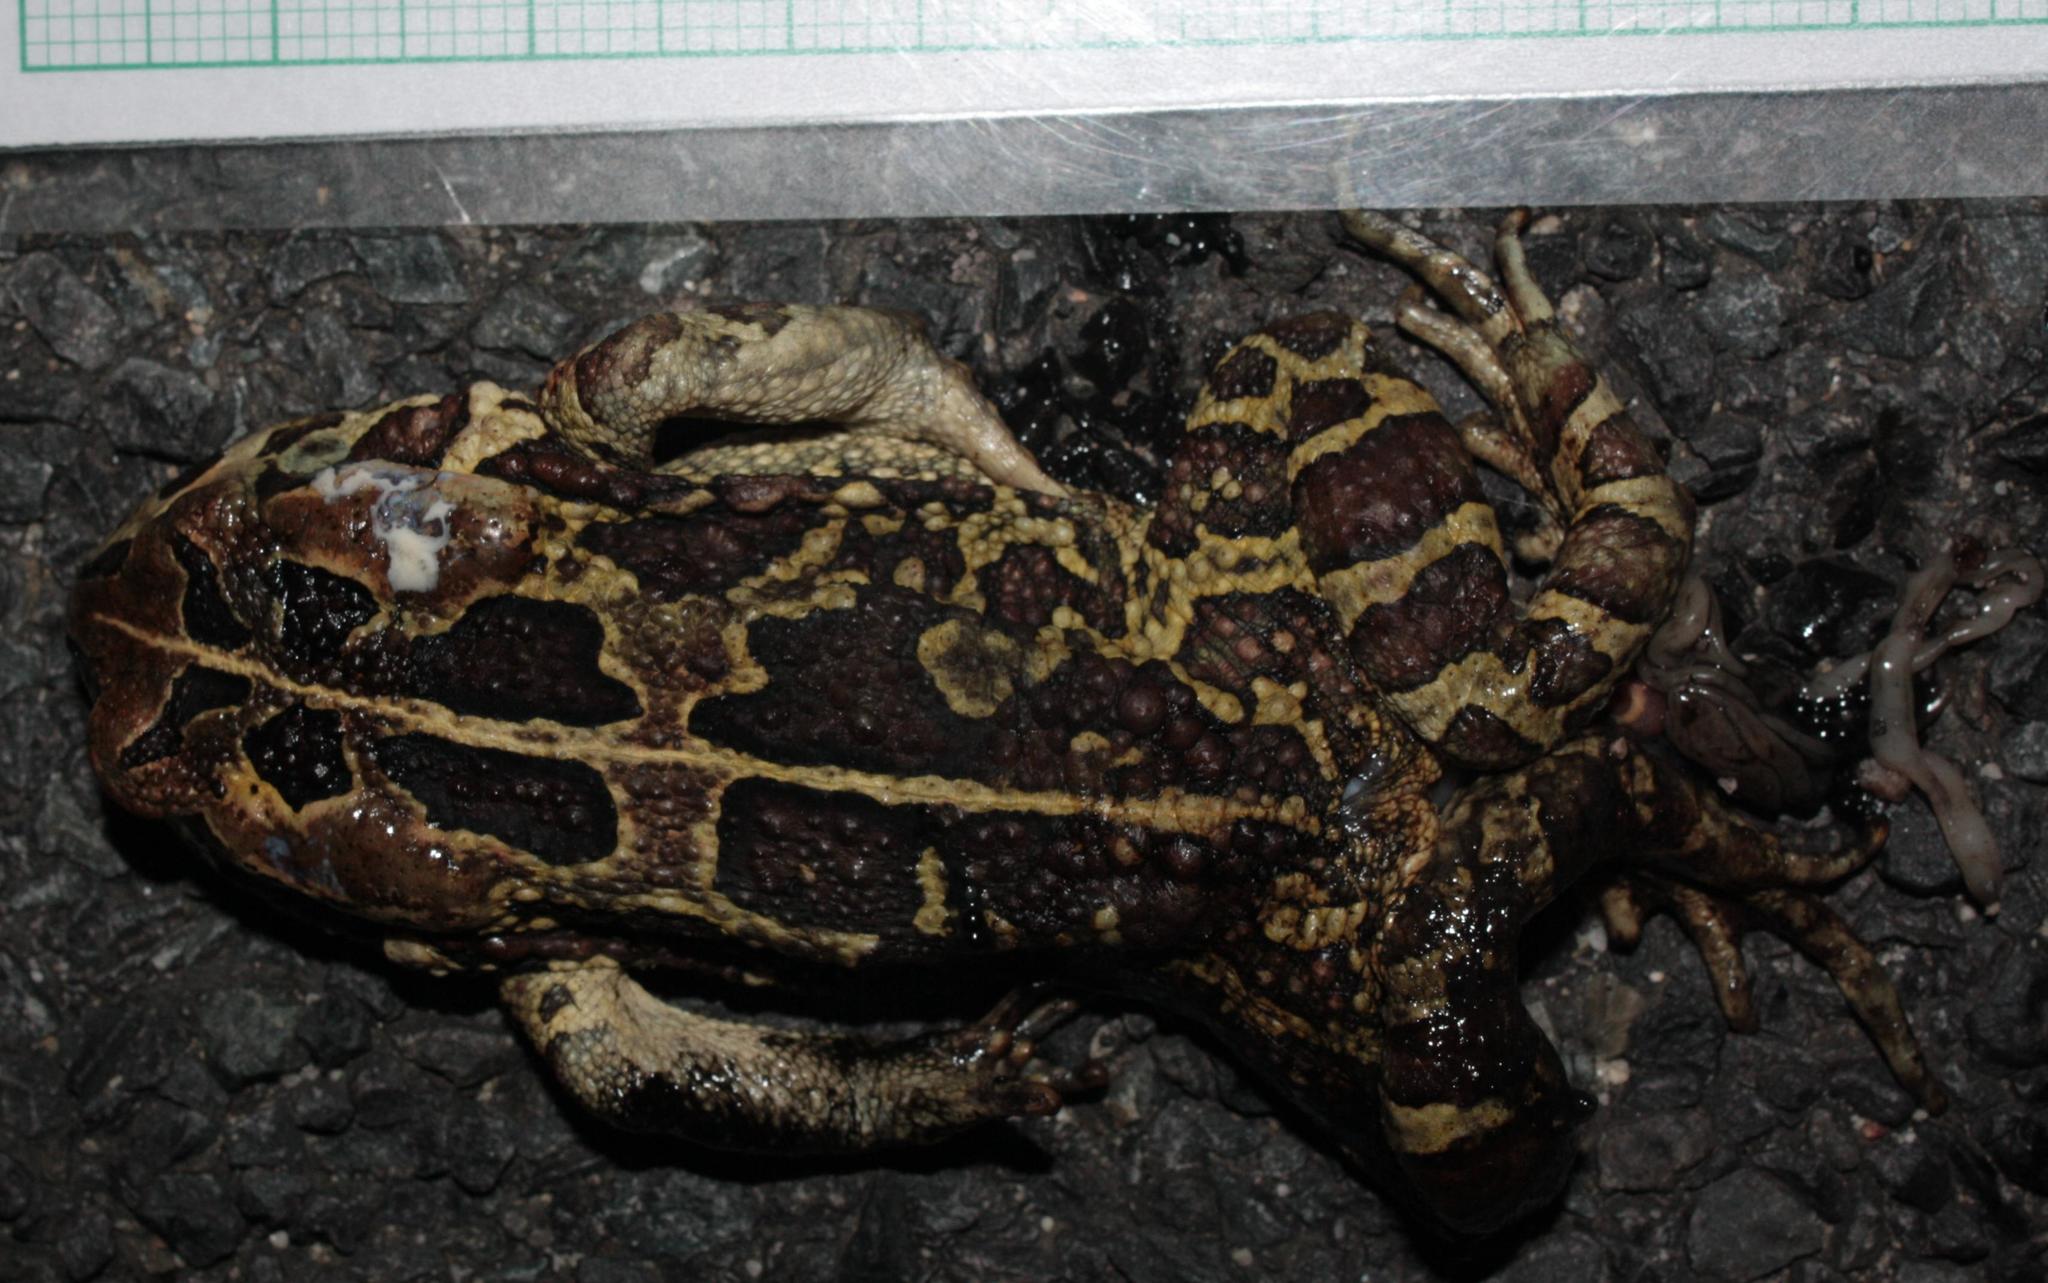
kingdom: Animalia
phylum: Chordata
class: Amphibia
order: Anura
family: Bufonidae
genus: Sclerophrys
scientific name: Sclerophrys pantherina
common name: Panther toad
